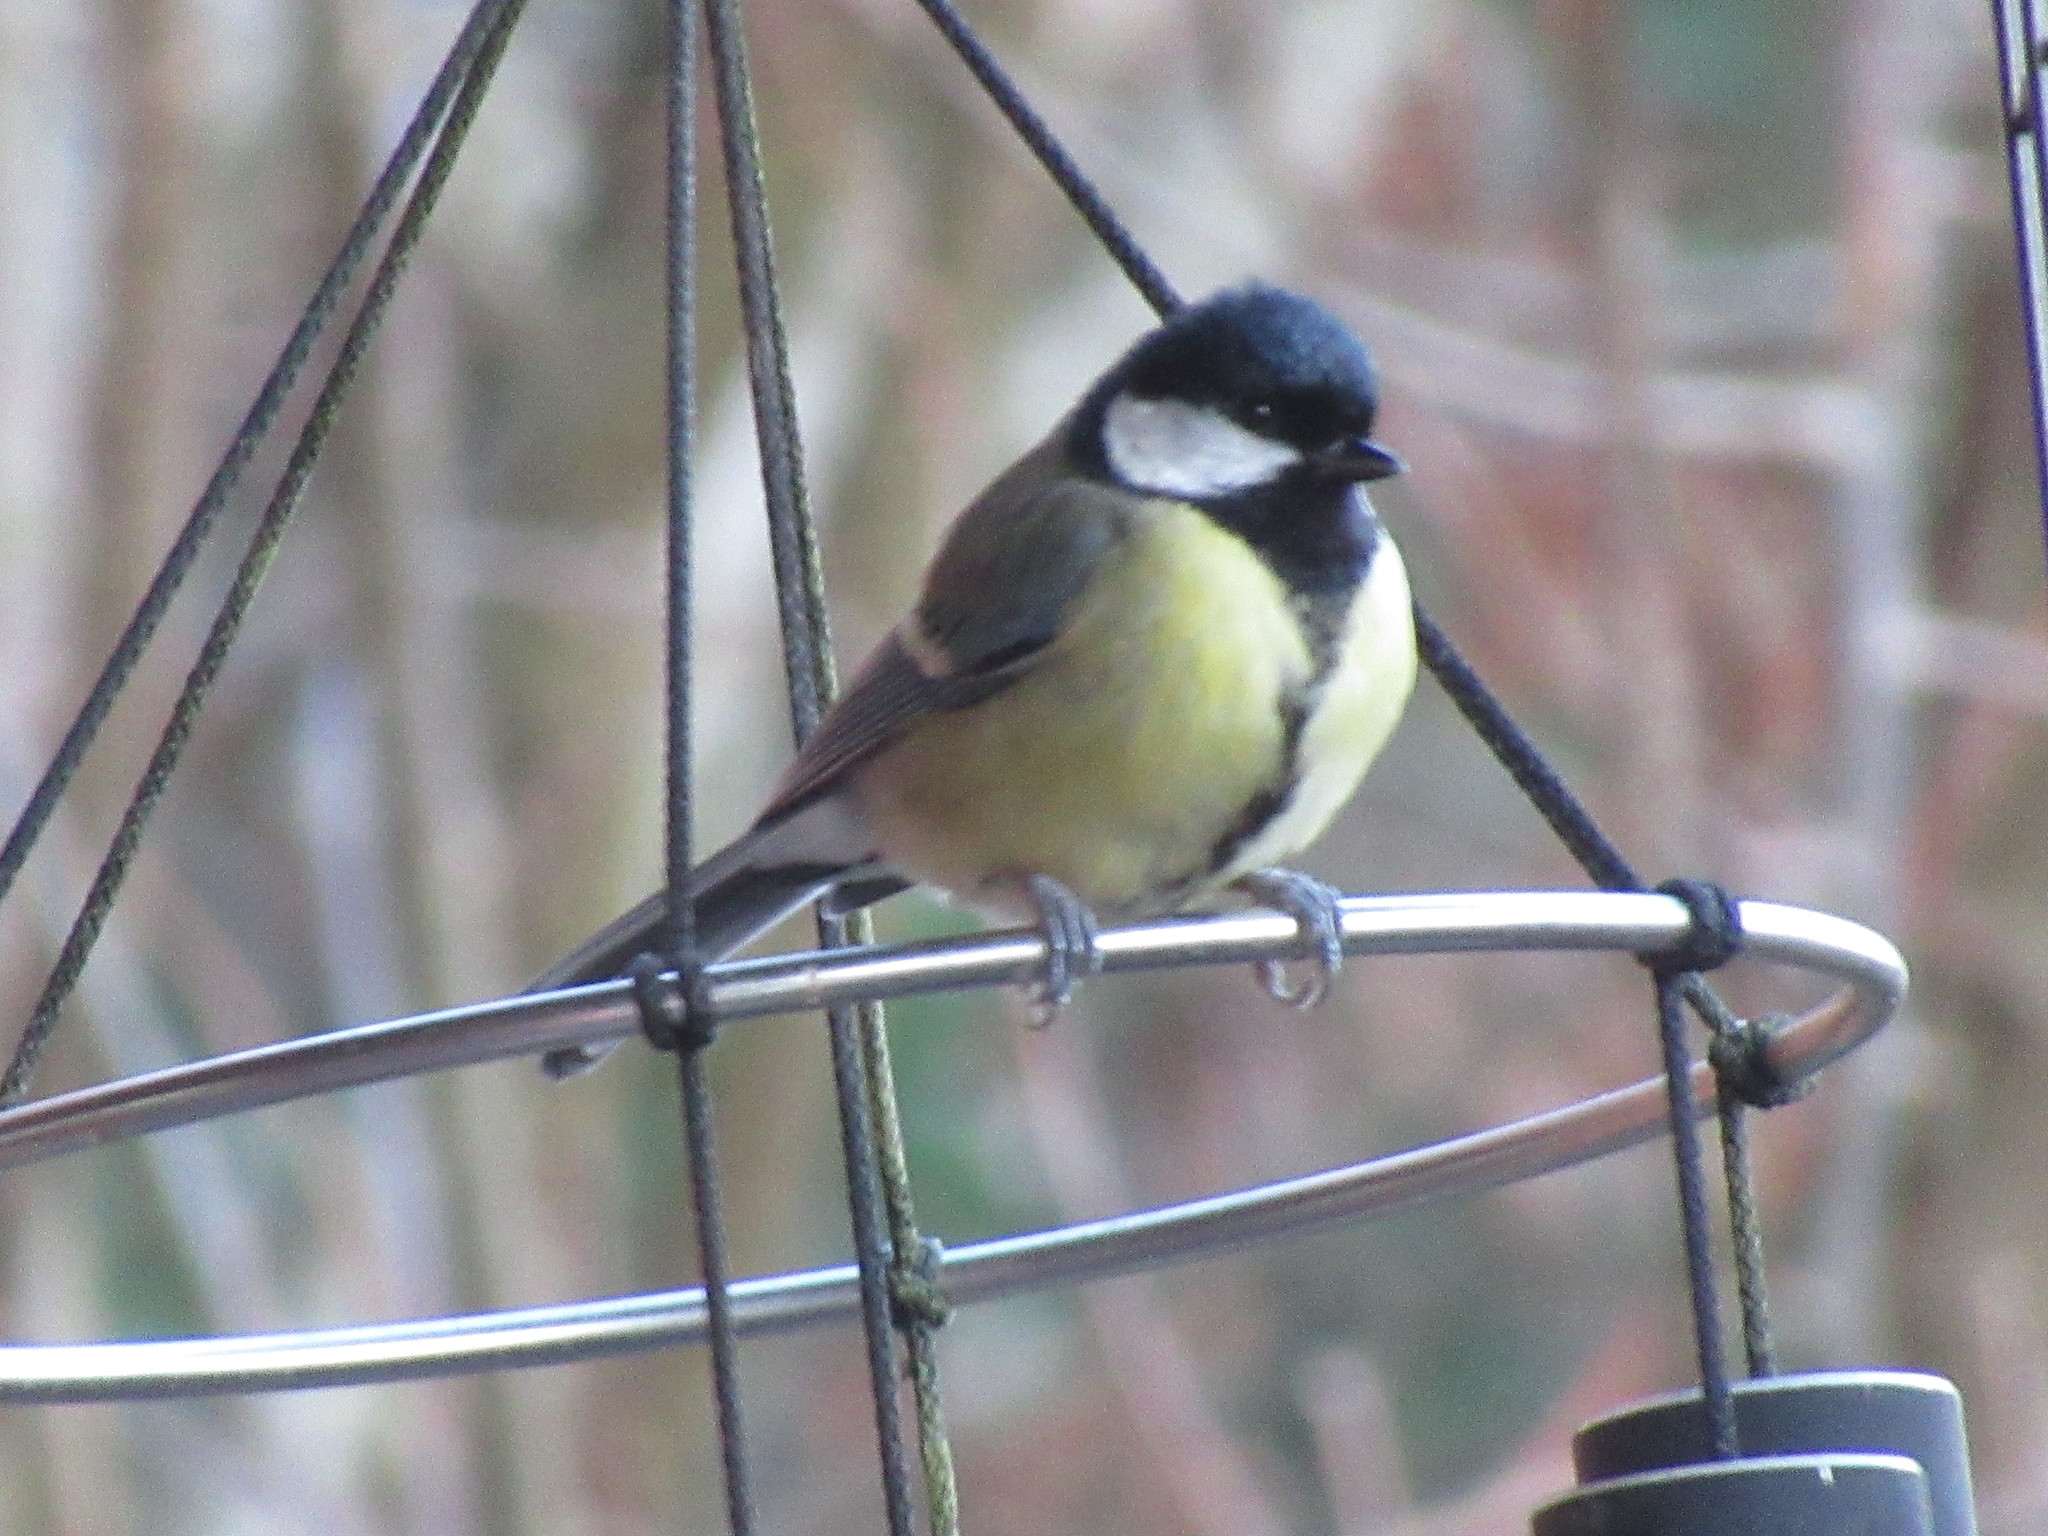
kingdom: Animalia
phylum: Chordata
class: Aves
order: Passeriformes
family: Paridae
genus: Parus
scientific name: Parus major
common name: Great tit
